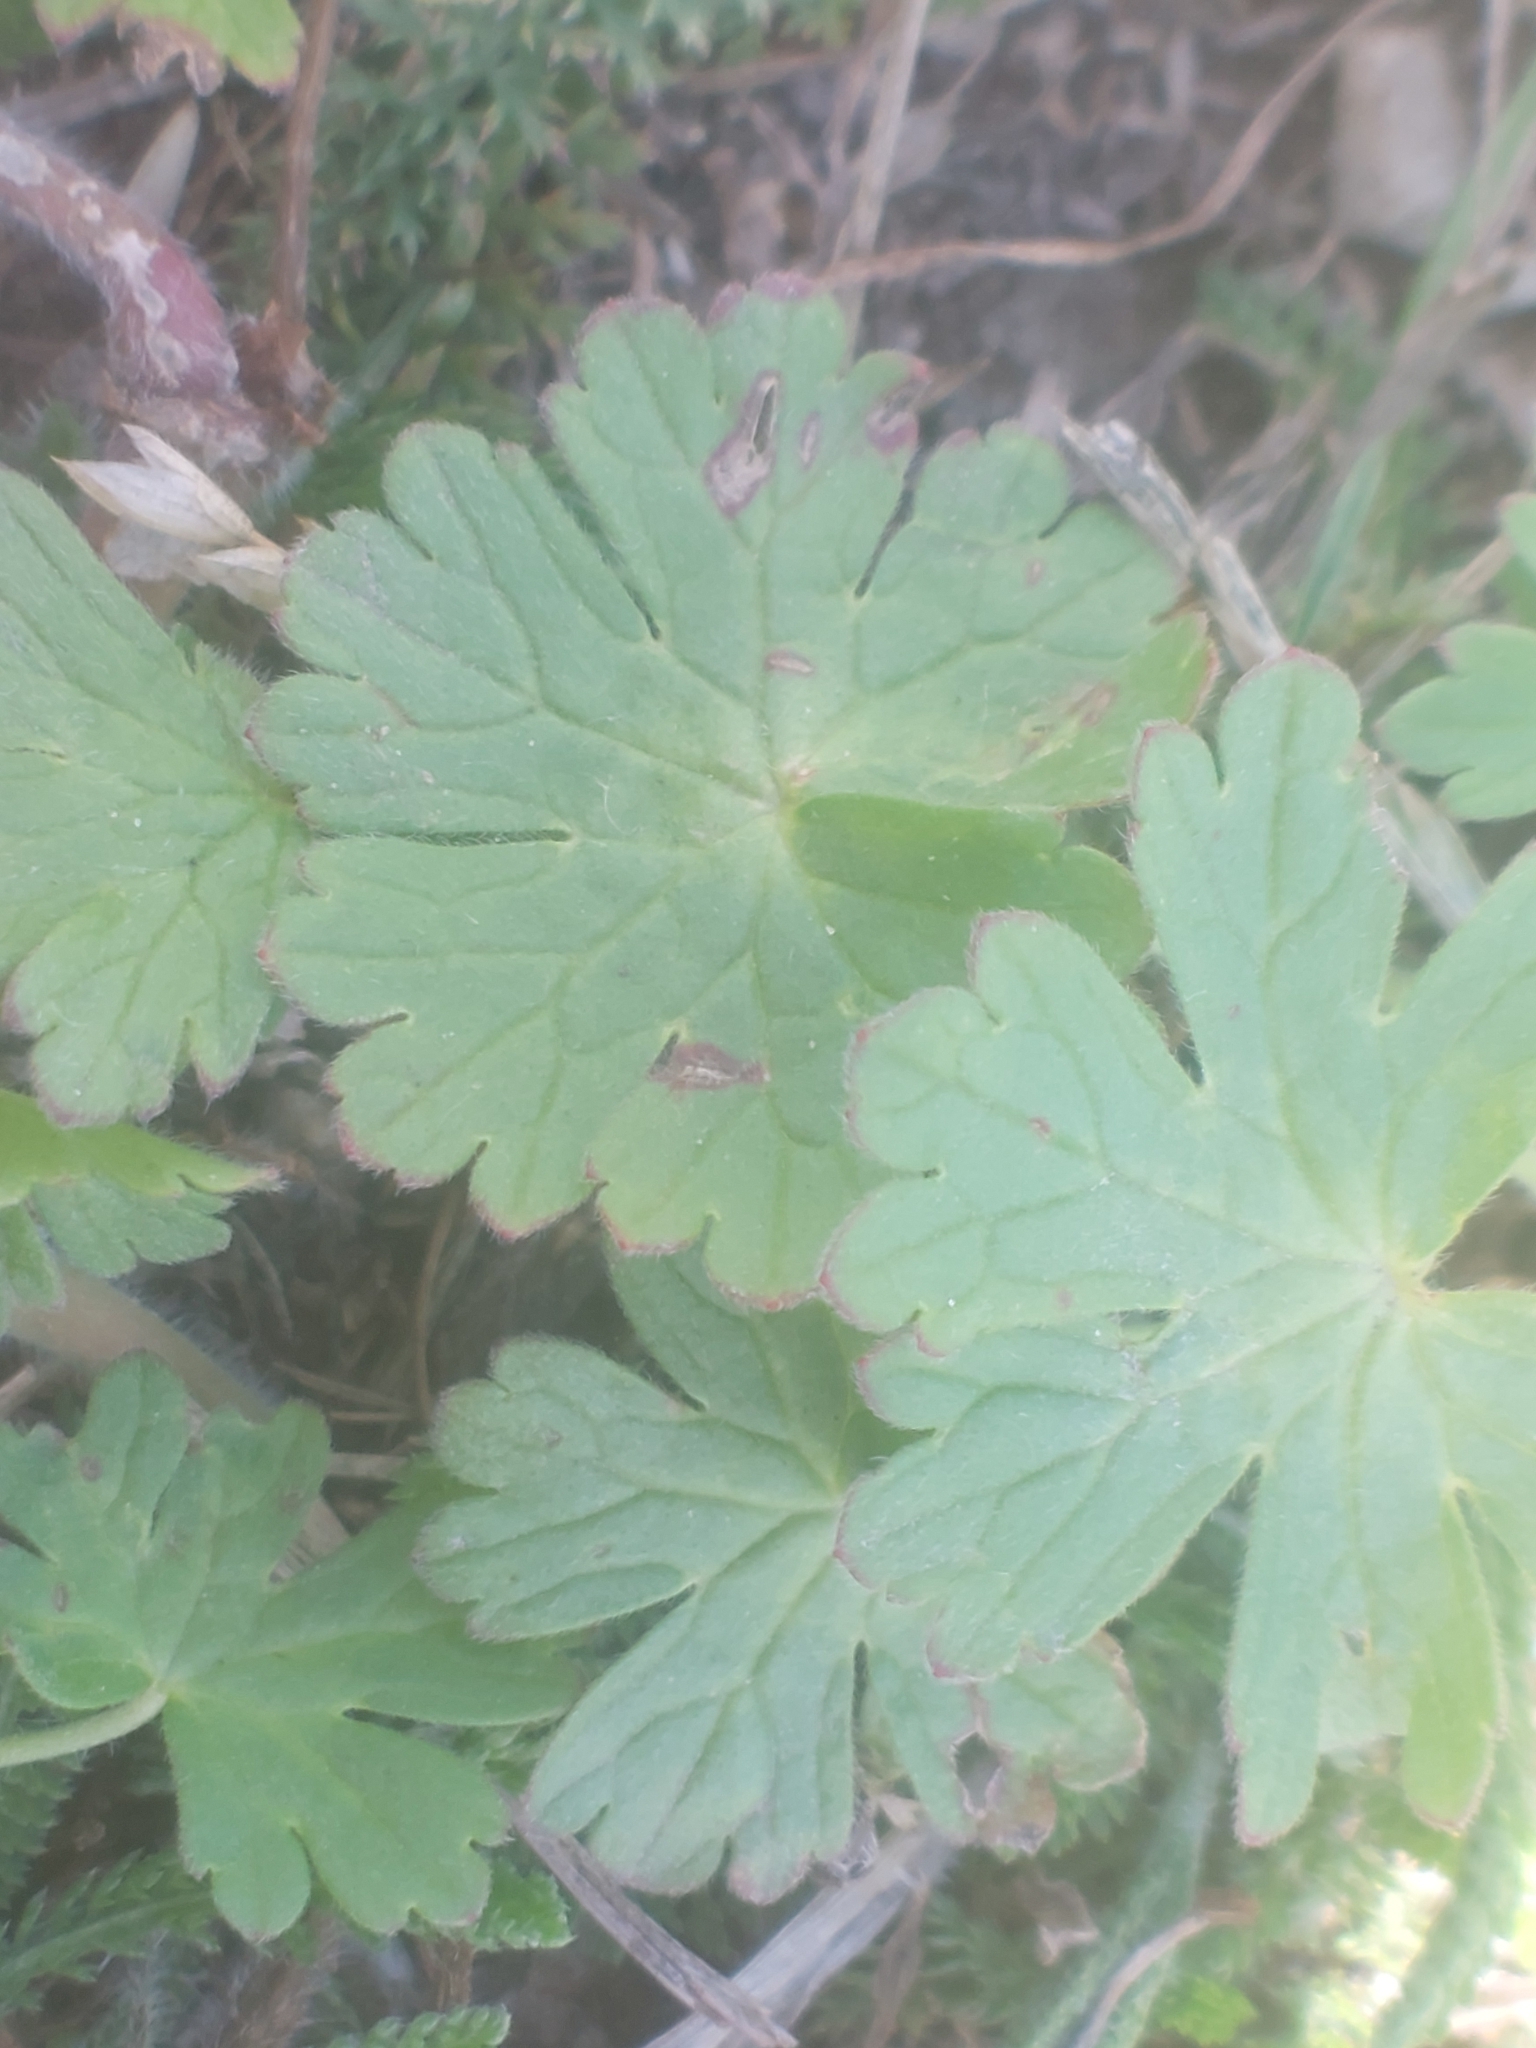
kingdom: Plantae
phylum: Tracheophyta
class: Magnoliopsida
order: Geraniales
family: Geraniaceae
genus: Geranium
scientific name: Geranium pyrenaicum
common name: Hedgerow crane's-bill
